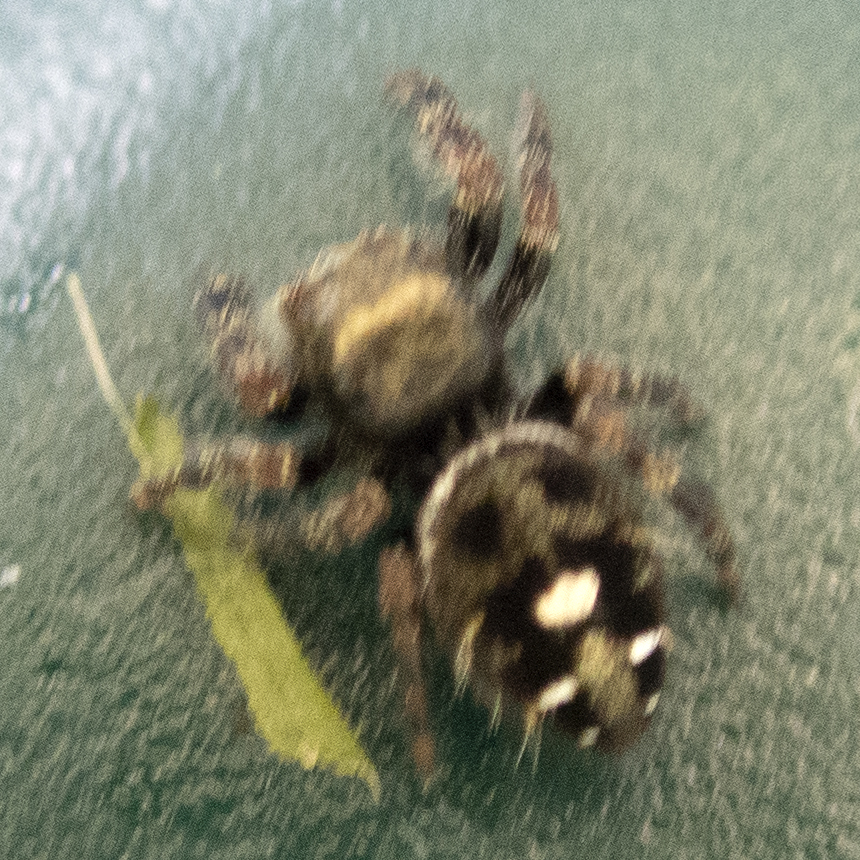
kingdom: Animalia
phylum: Arthropoda
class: Arachnida
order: Araneae
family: Salticidae
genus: Phidippus
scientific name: Phidippus audax
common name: Bold jumper
